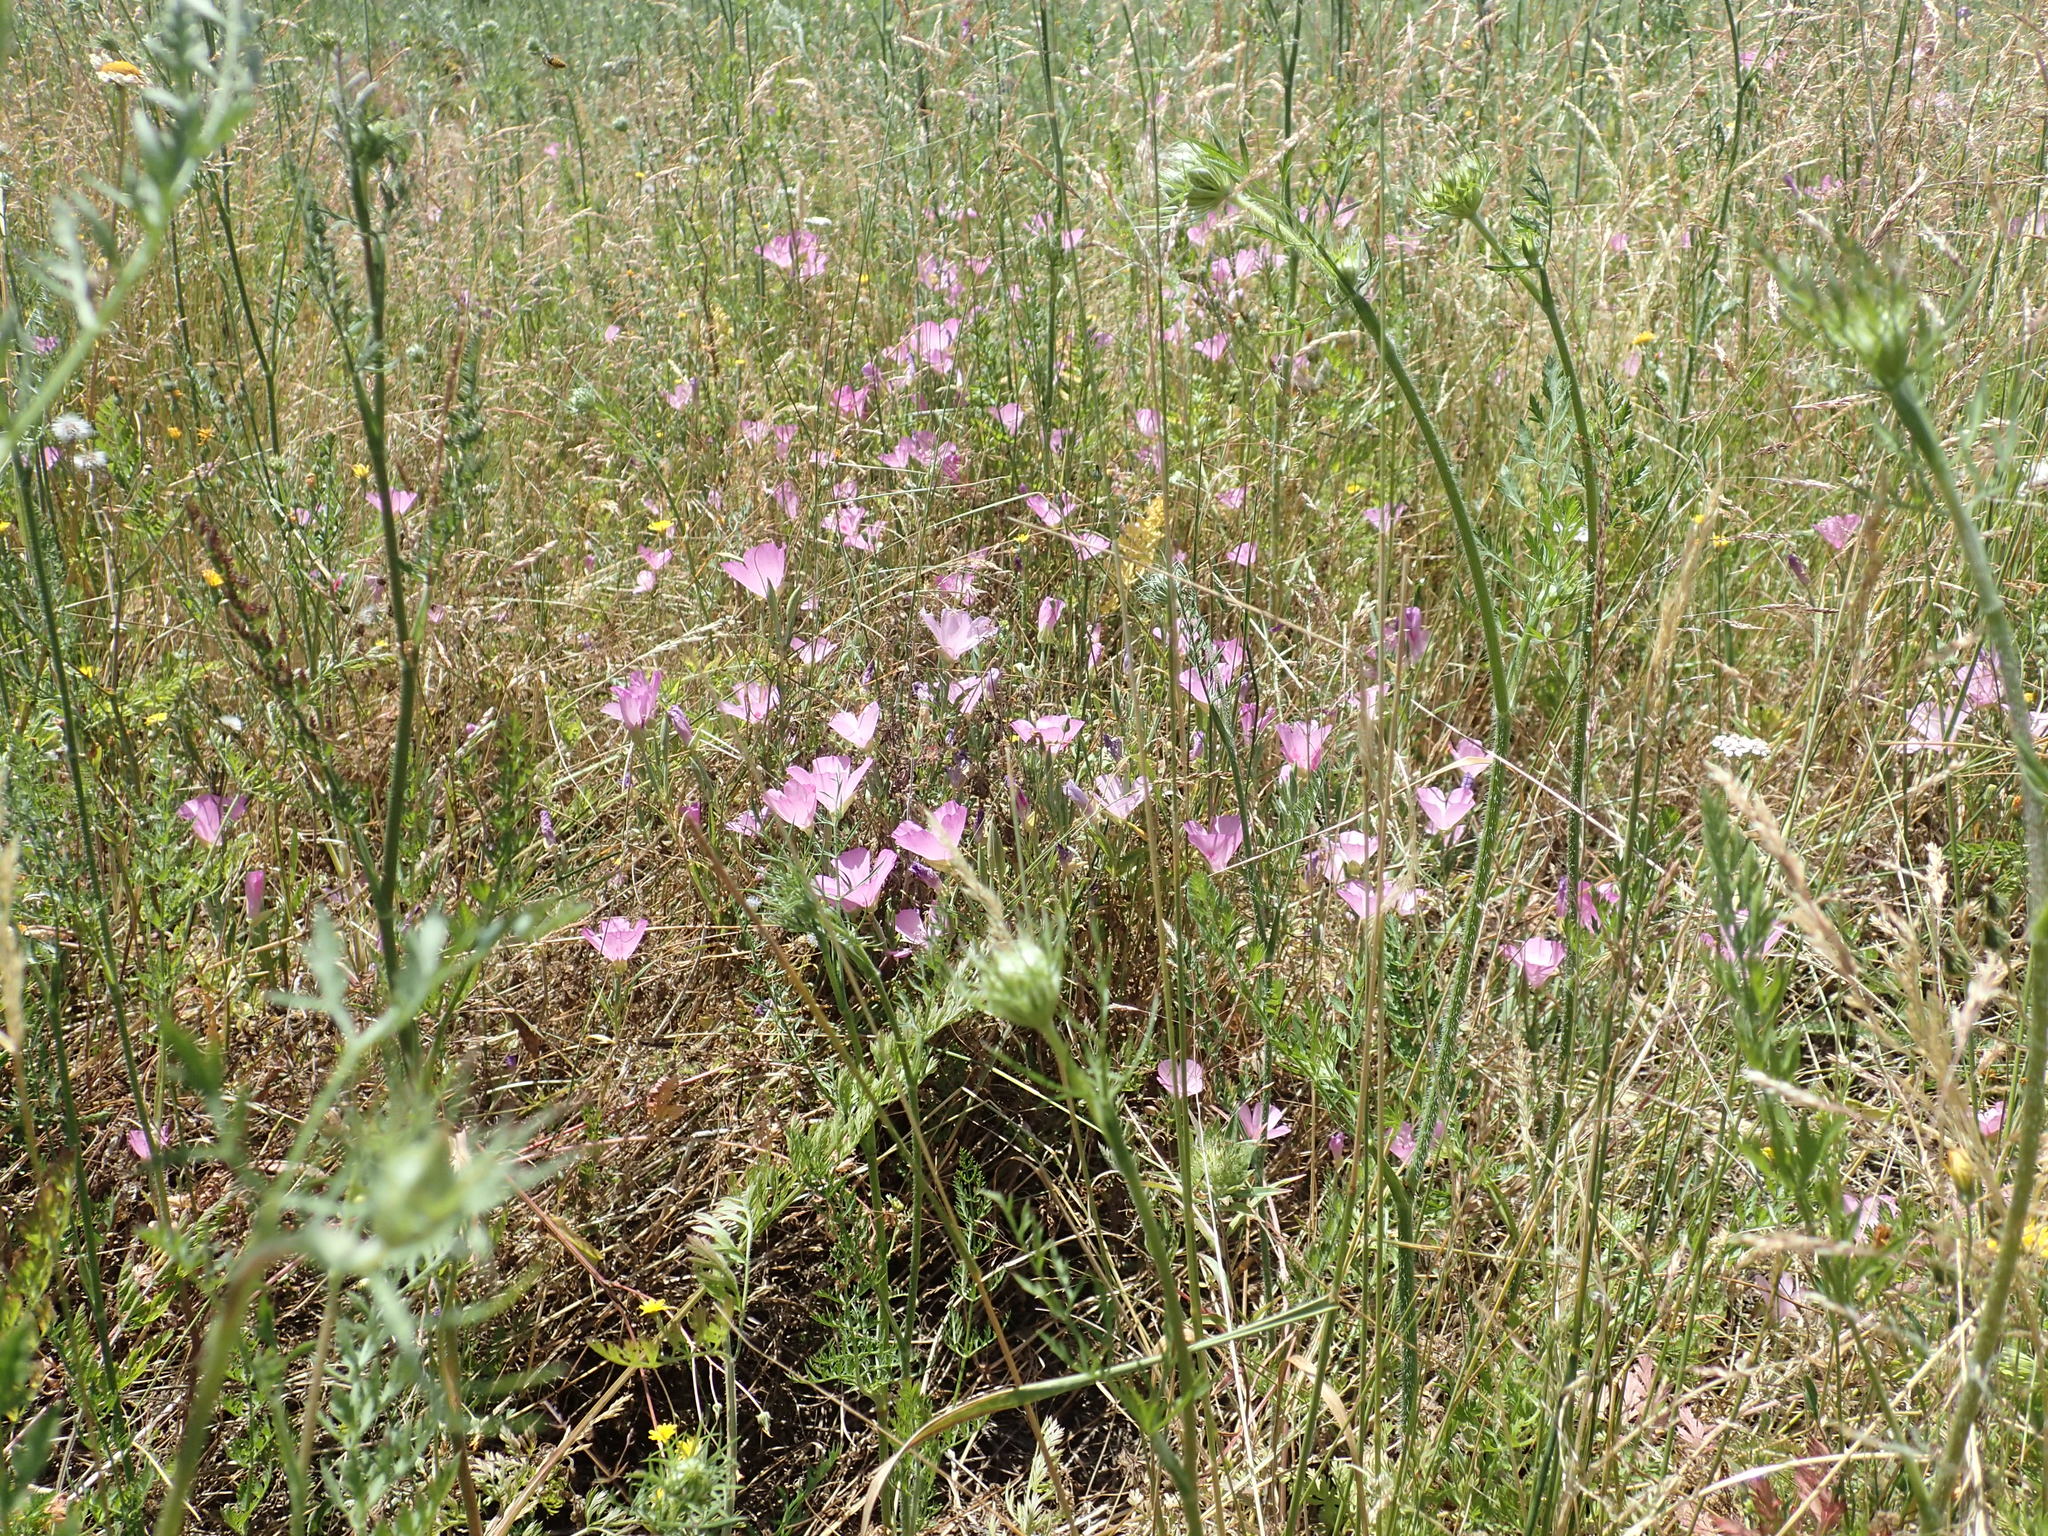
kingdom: Plantae
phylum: Tracheophyta
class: Magnoliopsida
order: Myrtales
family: Onagraceae
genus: Clarkia
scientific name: Clarkia amoena
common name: Godetia
